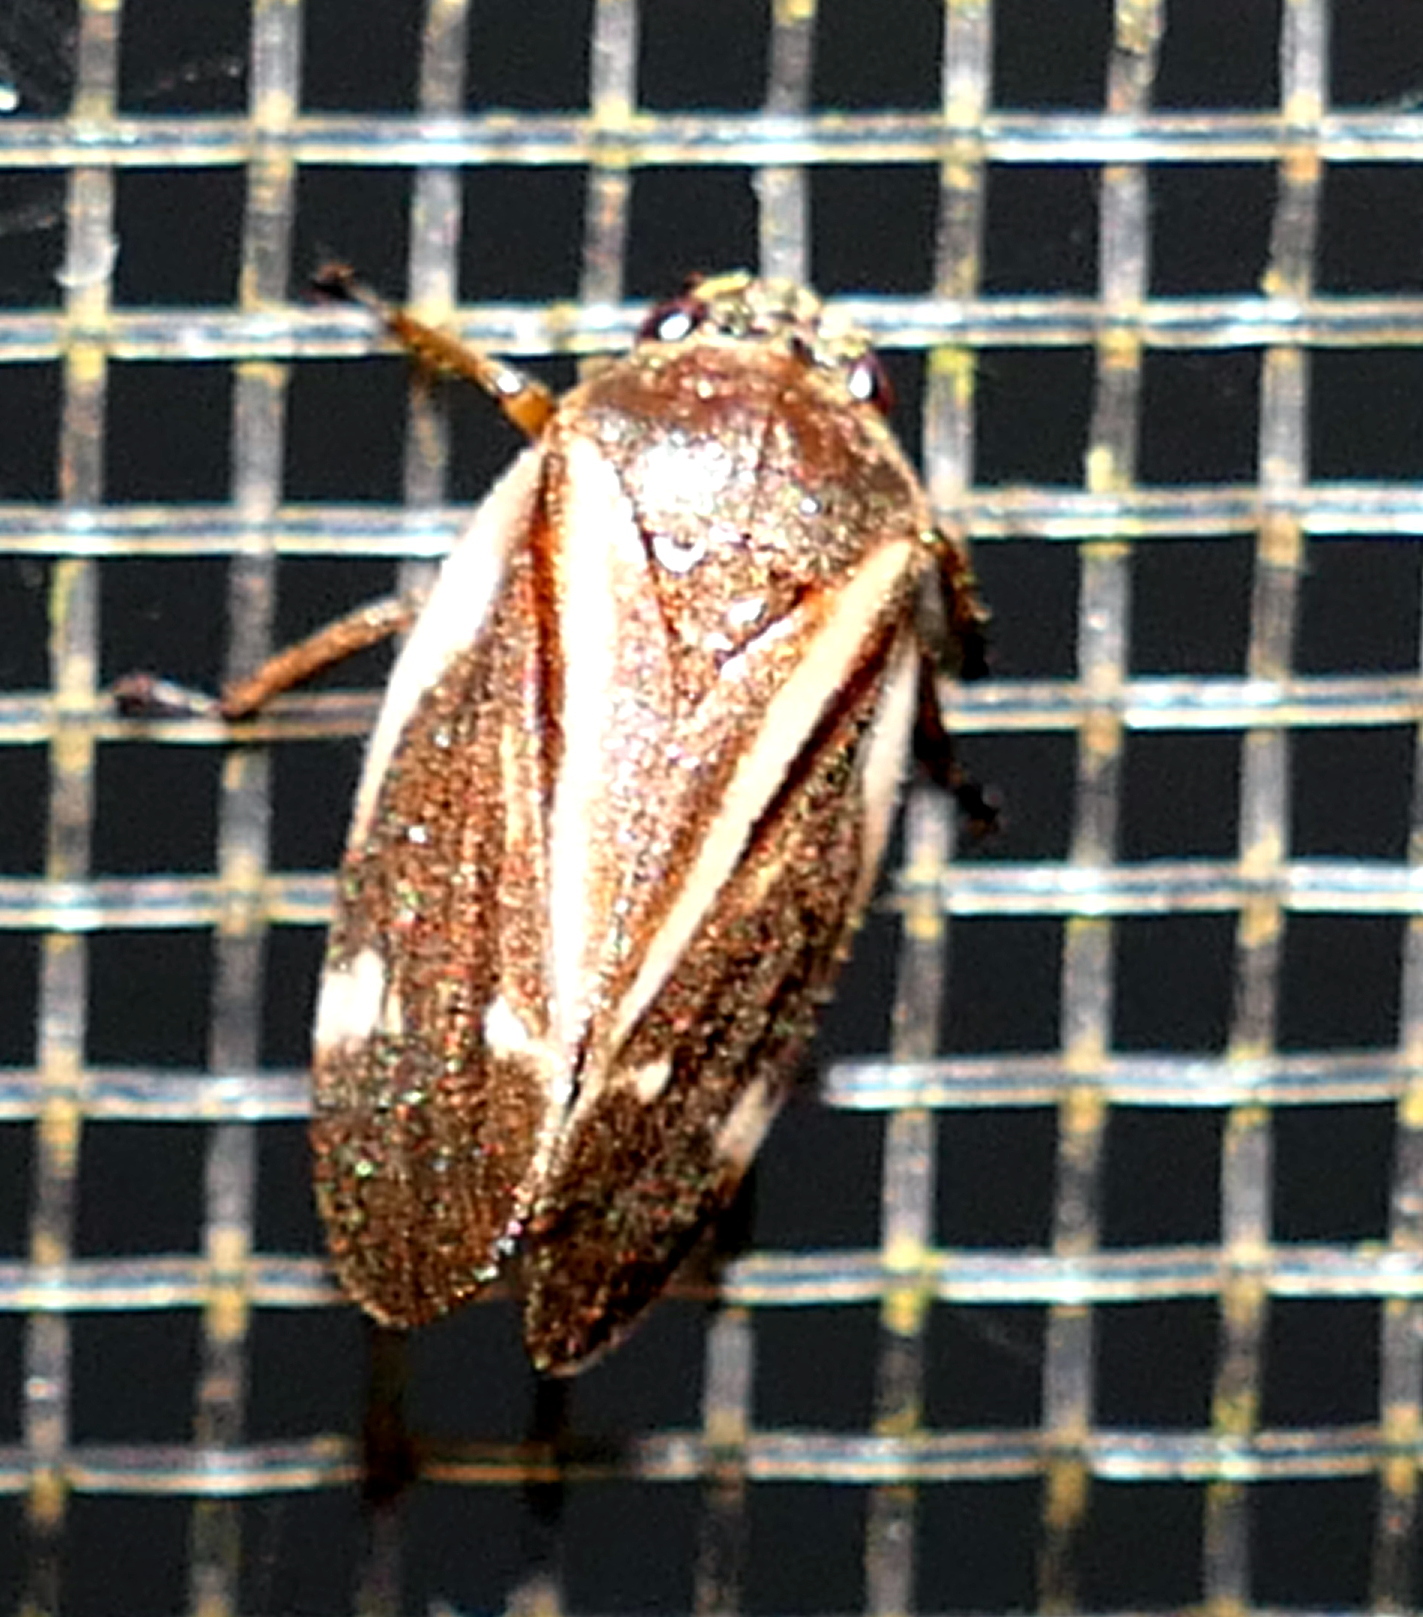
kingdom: Animalia
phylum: Arthropoda
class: Insecta
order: Hemiptera
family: Cercopidae
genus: Deois
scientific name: Deois incompleta
